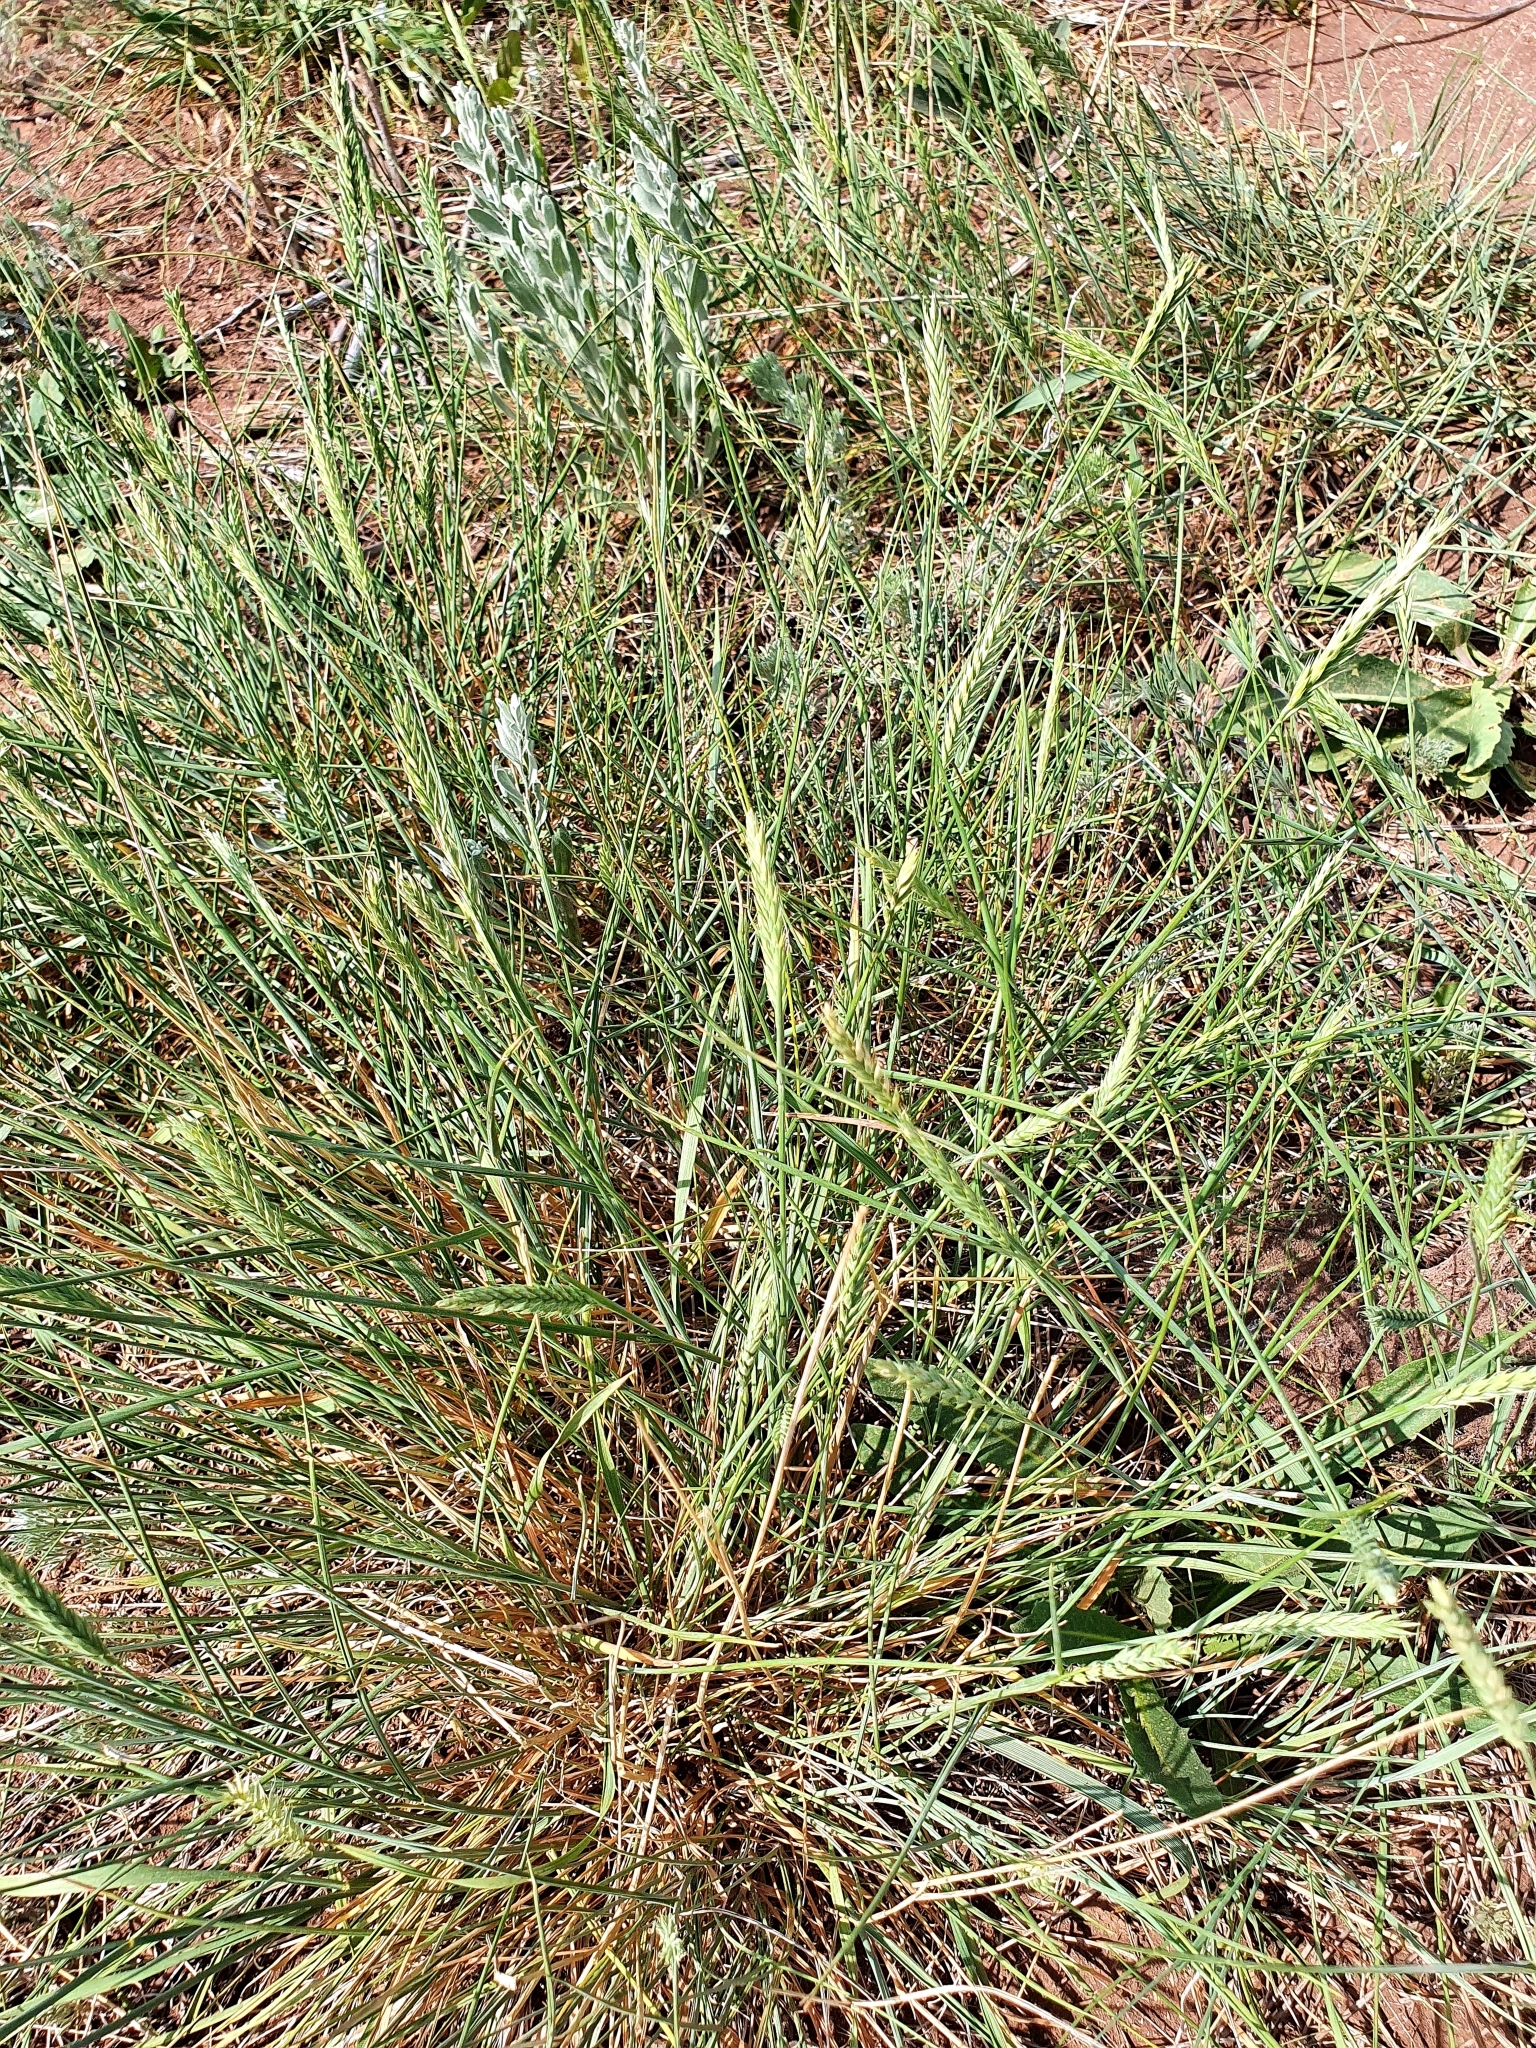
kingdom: Plantae
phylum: Tracheophyta
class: Liliopsida
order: Poales
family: Poaceae
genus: Agropyron
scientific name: Agropyron desertorum
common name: Desert wheatgrass
